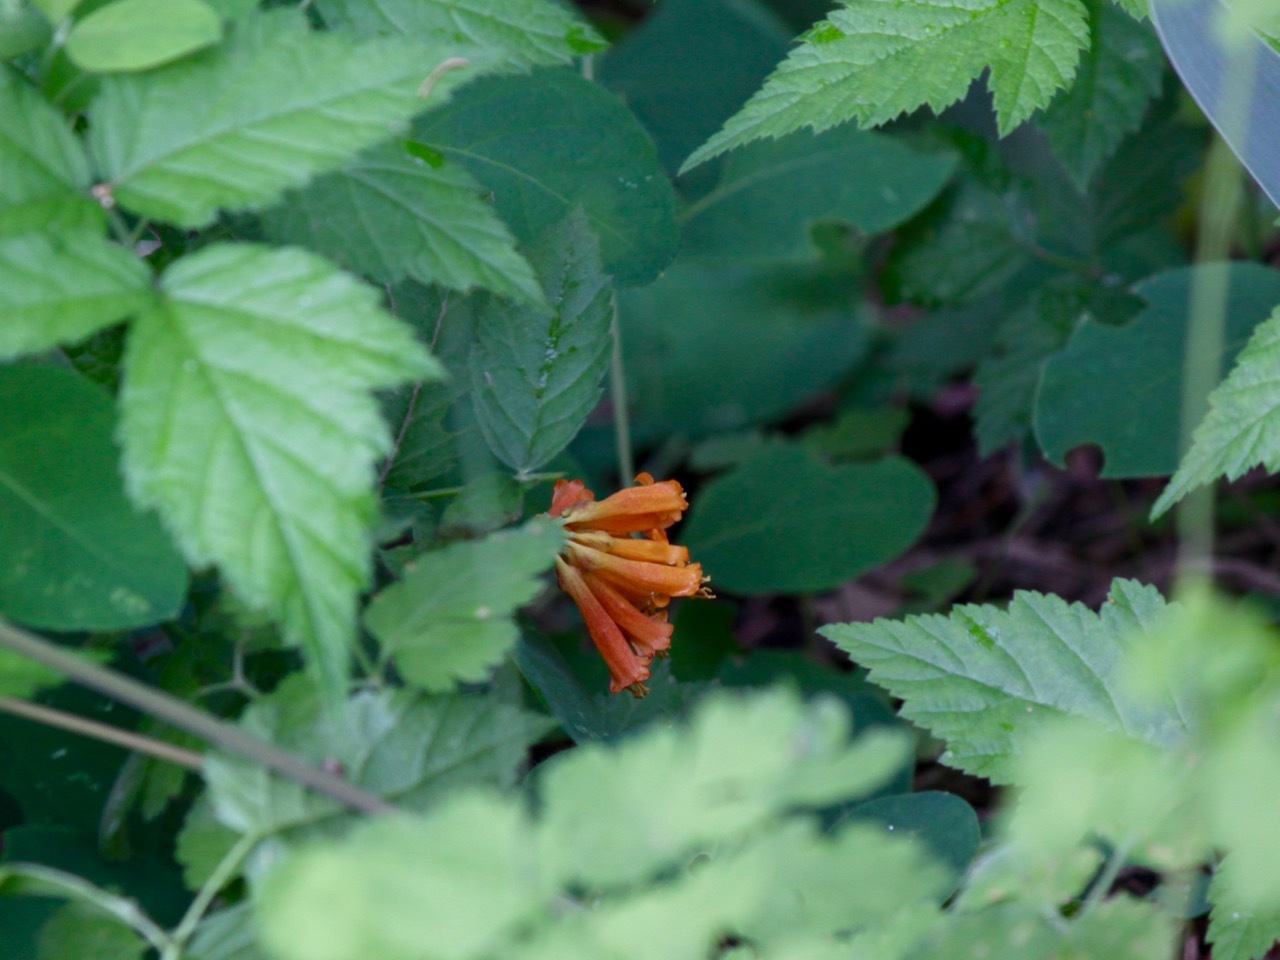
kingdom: Plantae
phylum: Tracheophyta
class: Magnoliopsida
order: Dipsacales
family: Caprifoliaceae
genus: Lonicera
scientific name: Lonicera ciliosa
